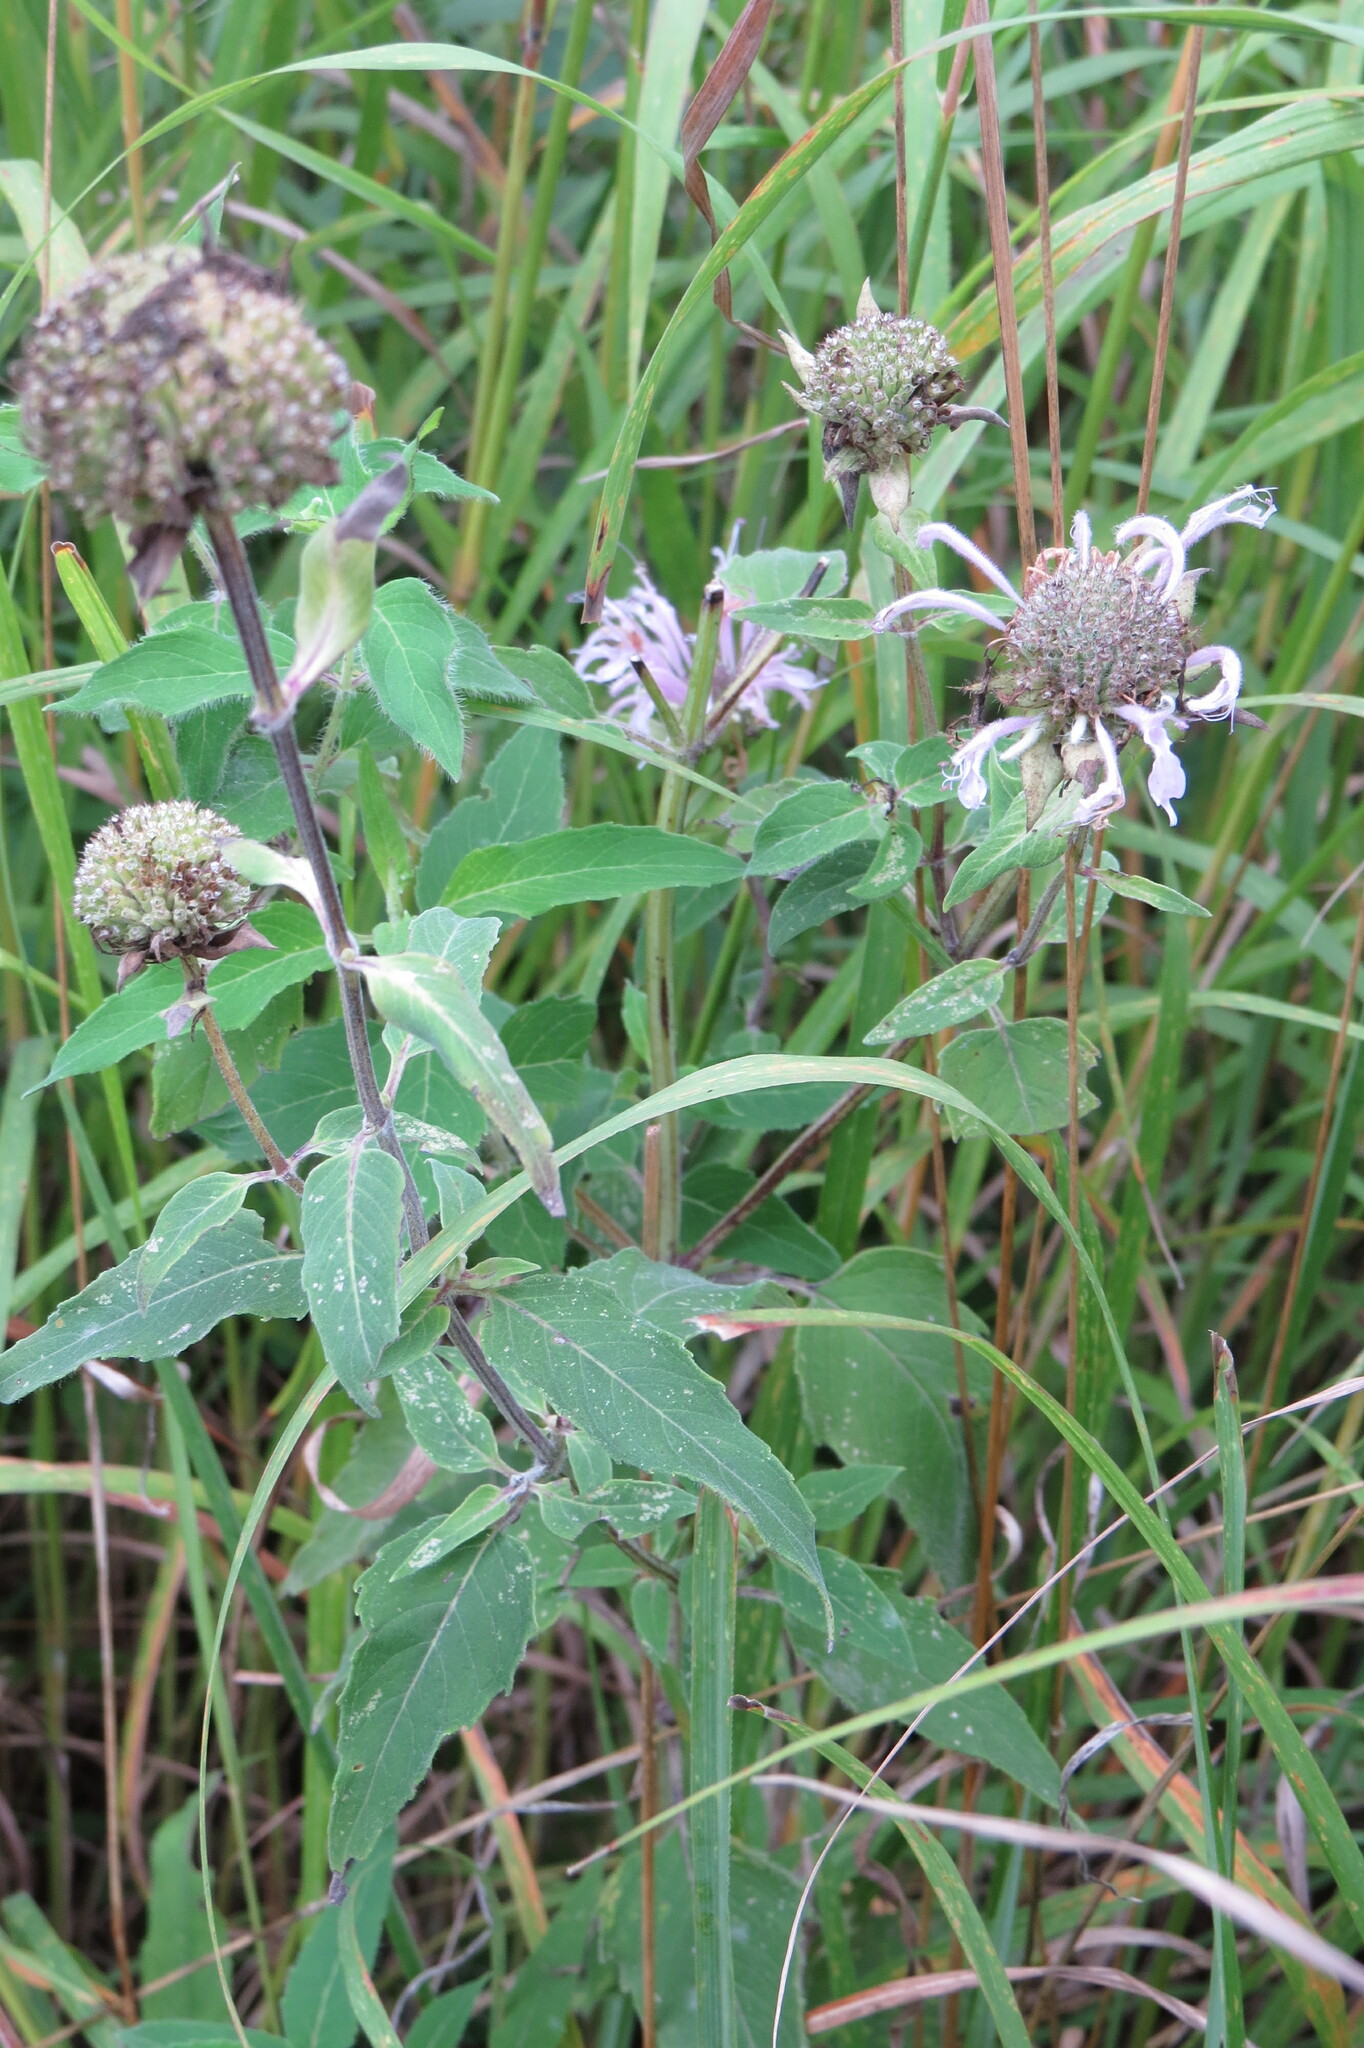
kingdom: Plantae
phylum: Tracheophyta
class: Magnoliopsida
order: Lamiales
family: Lamiaceae
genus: Monarda
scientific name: Monarda fistulosa
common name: Purple beebalm
